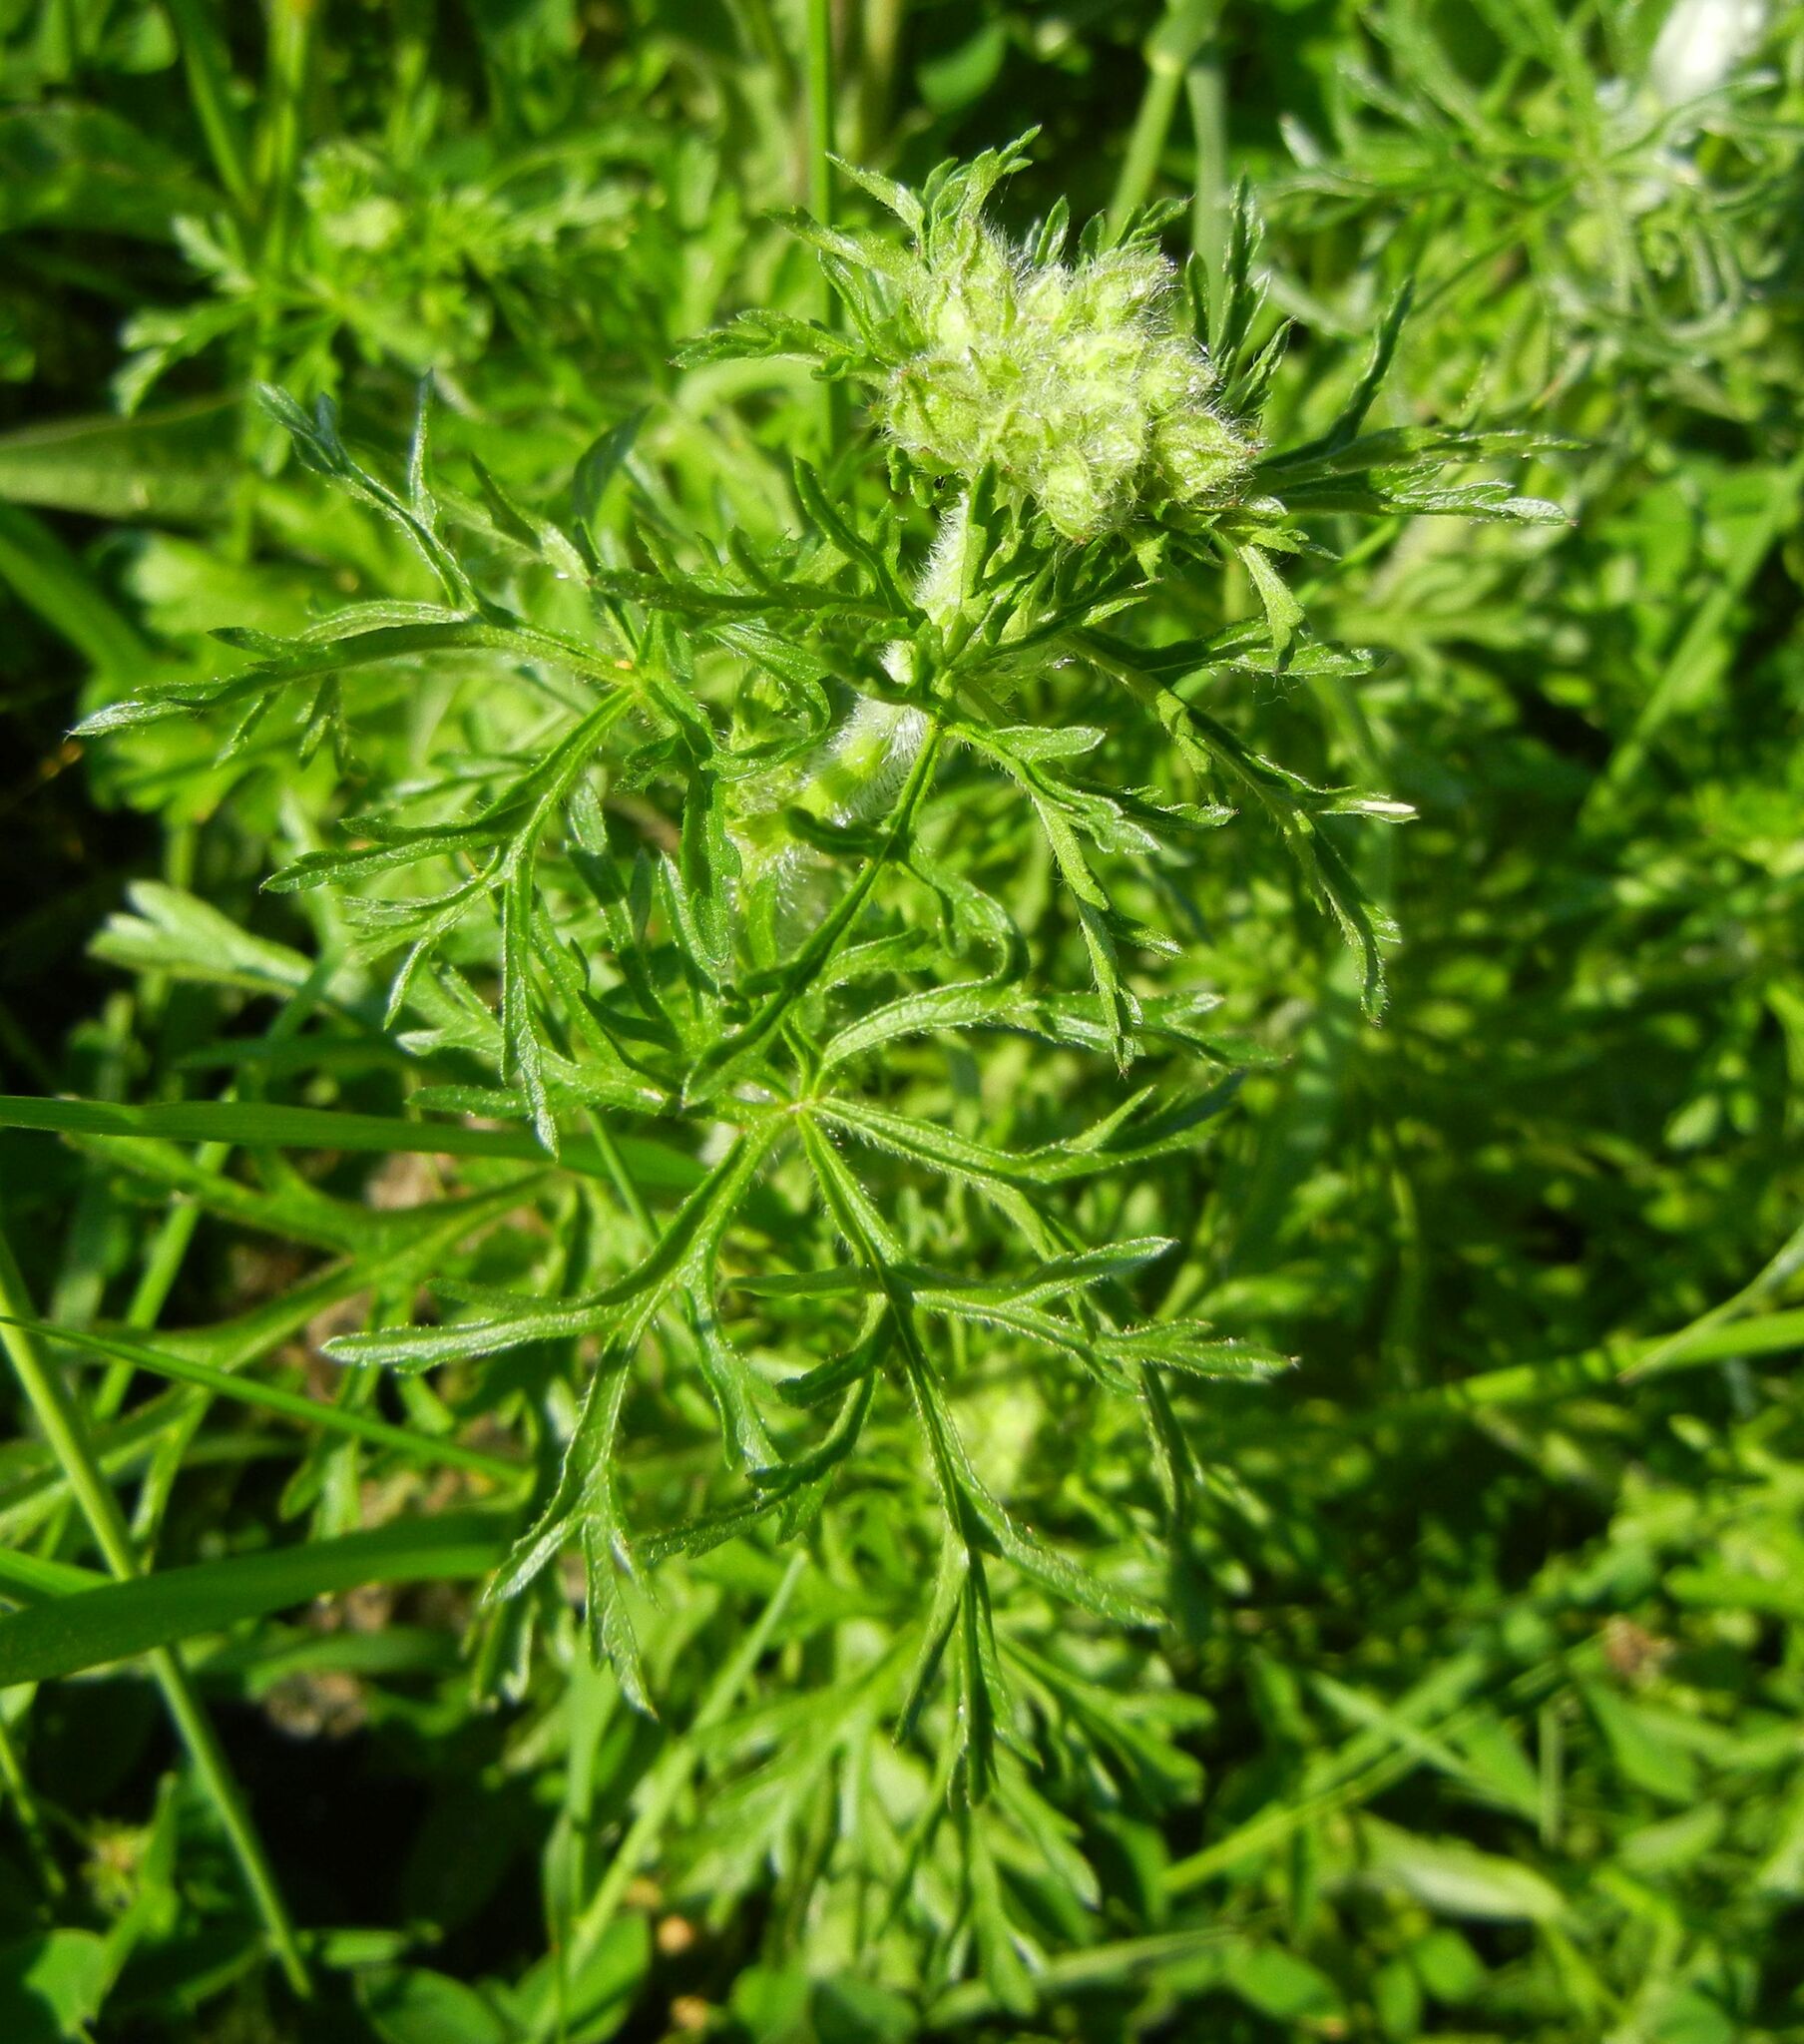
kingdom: Plantae
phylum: Tracheophyta
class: Magnoliopsida
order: Malvales
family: Malvaceae
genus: Malva
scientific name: Malva moschata
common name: Musk mallow
